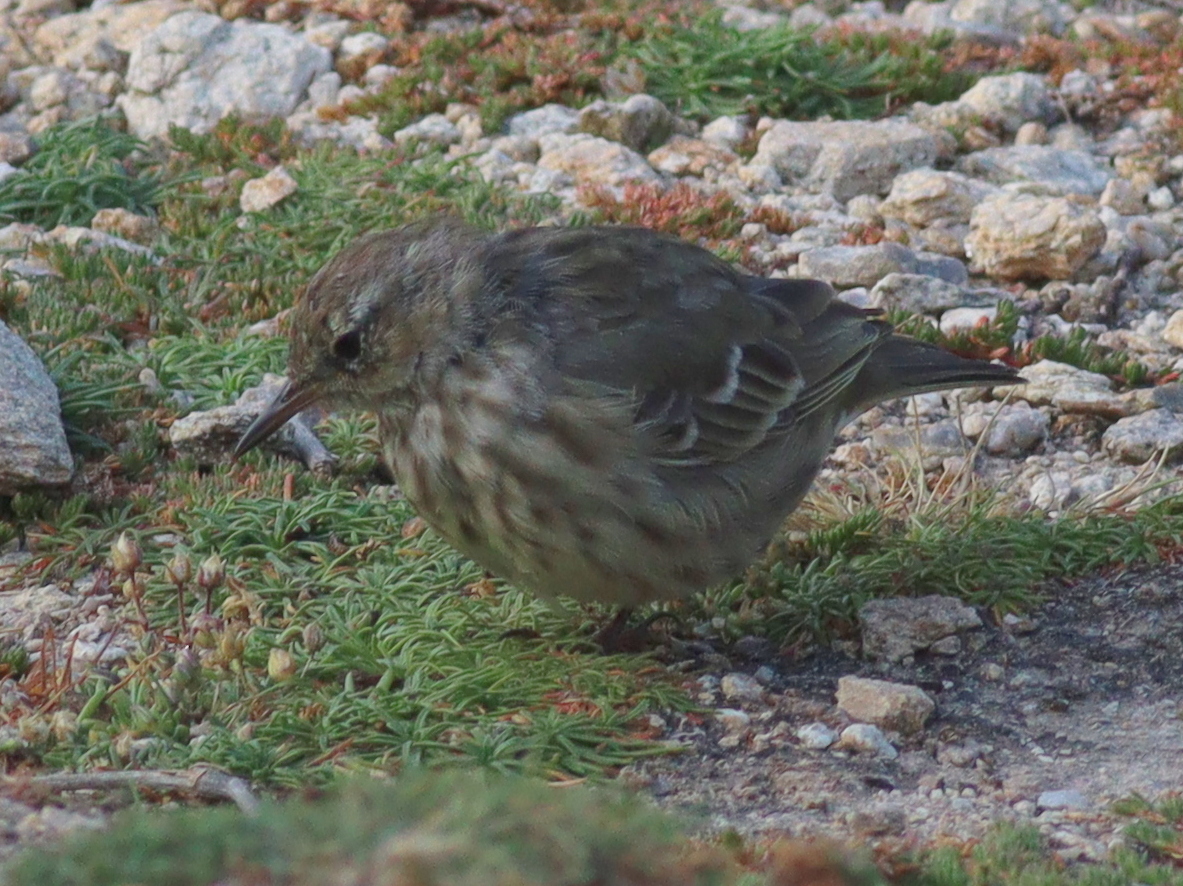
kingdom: Animalia
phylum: Chordata
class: Aves
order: Passeriformes
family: Motacillidae
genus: Anthus
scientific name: Anthus petrosus
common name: Eurasian rock pipit
